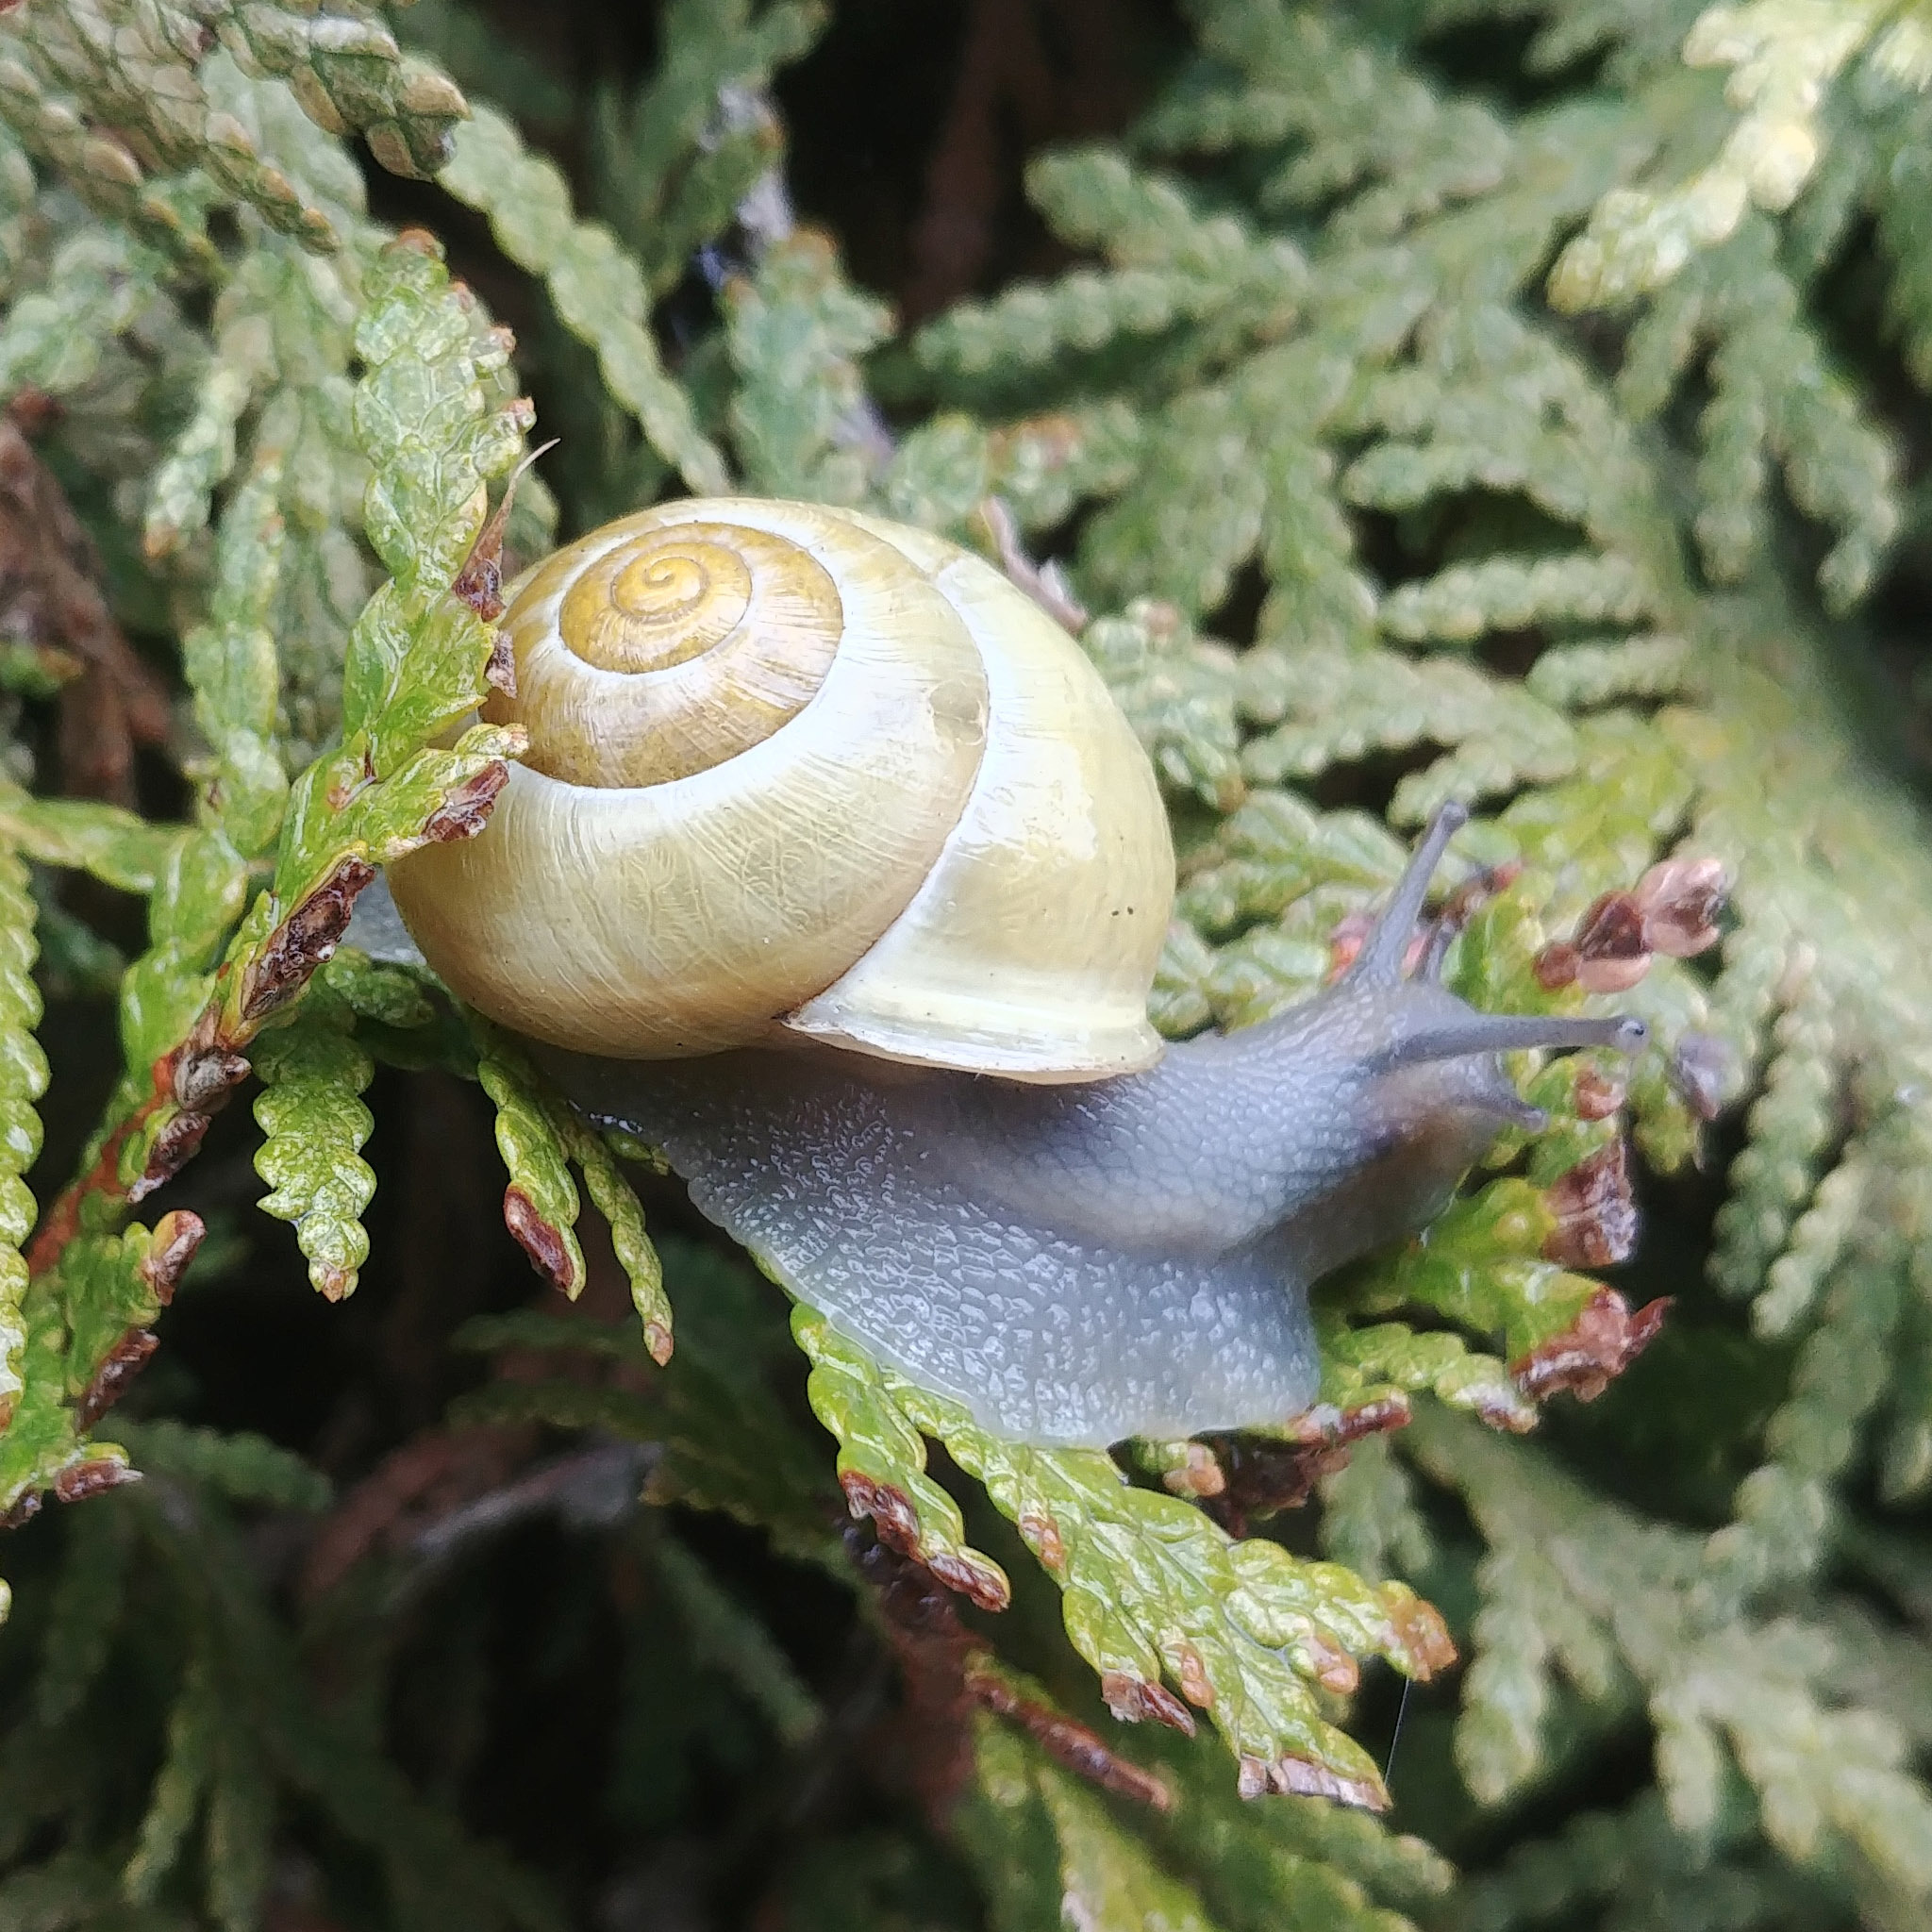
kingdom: Animalia
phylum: Mollusca
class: Gastropoda
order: Stylommatophora
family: Helicidae
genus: Cepaea
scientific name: Cepaea hortensis
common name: White-lip gardensnail
